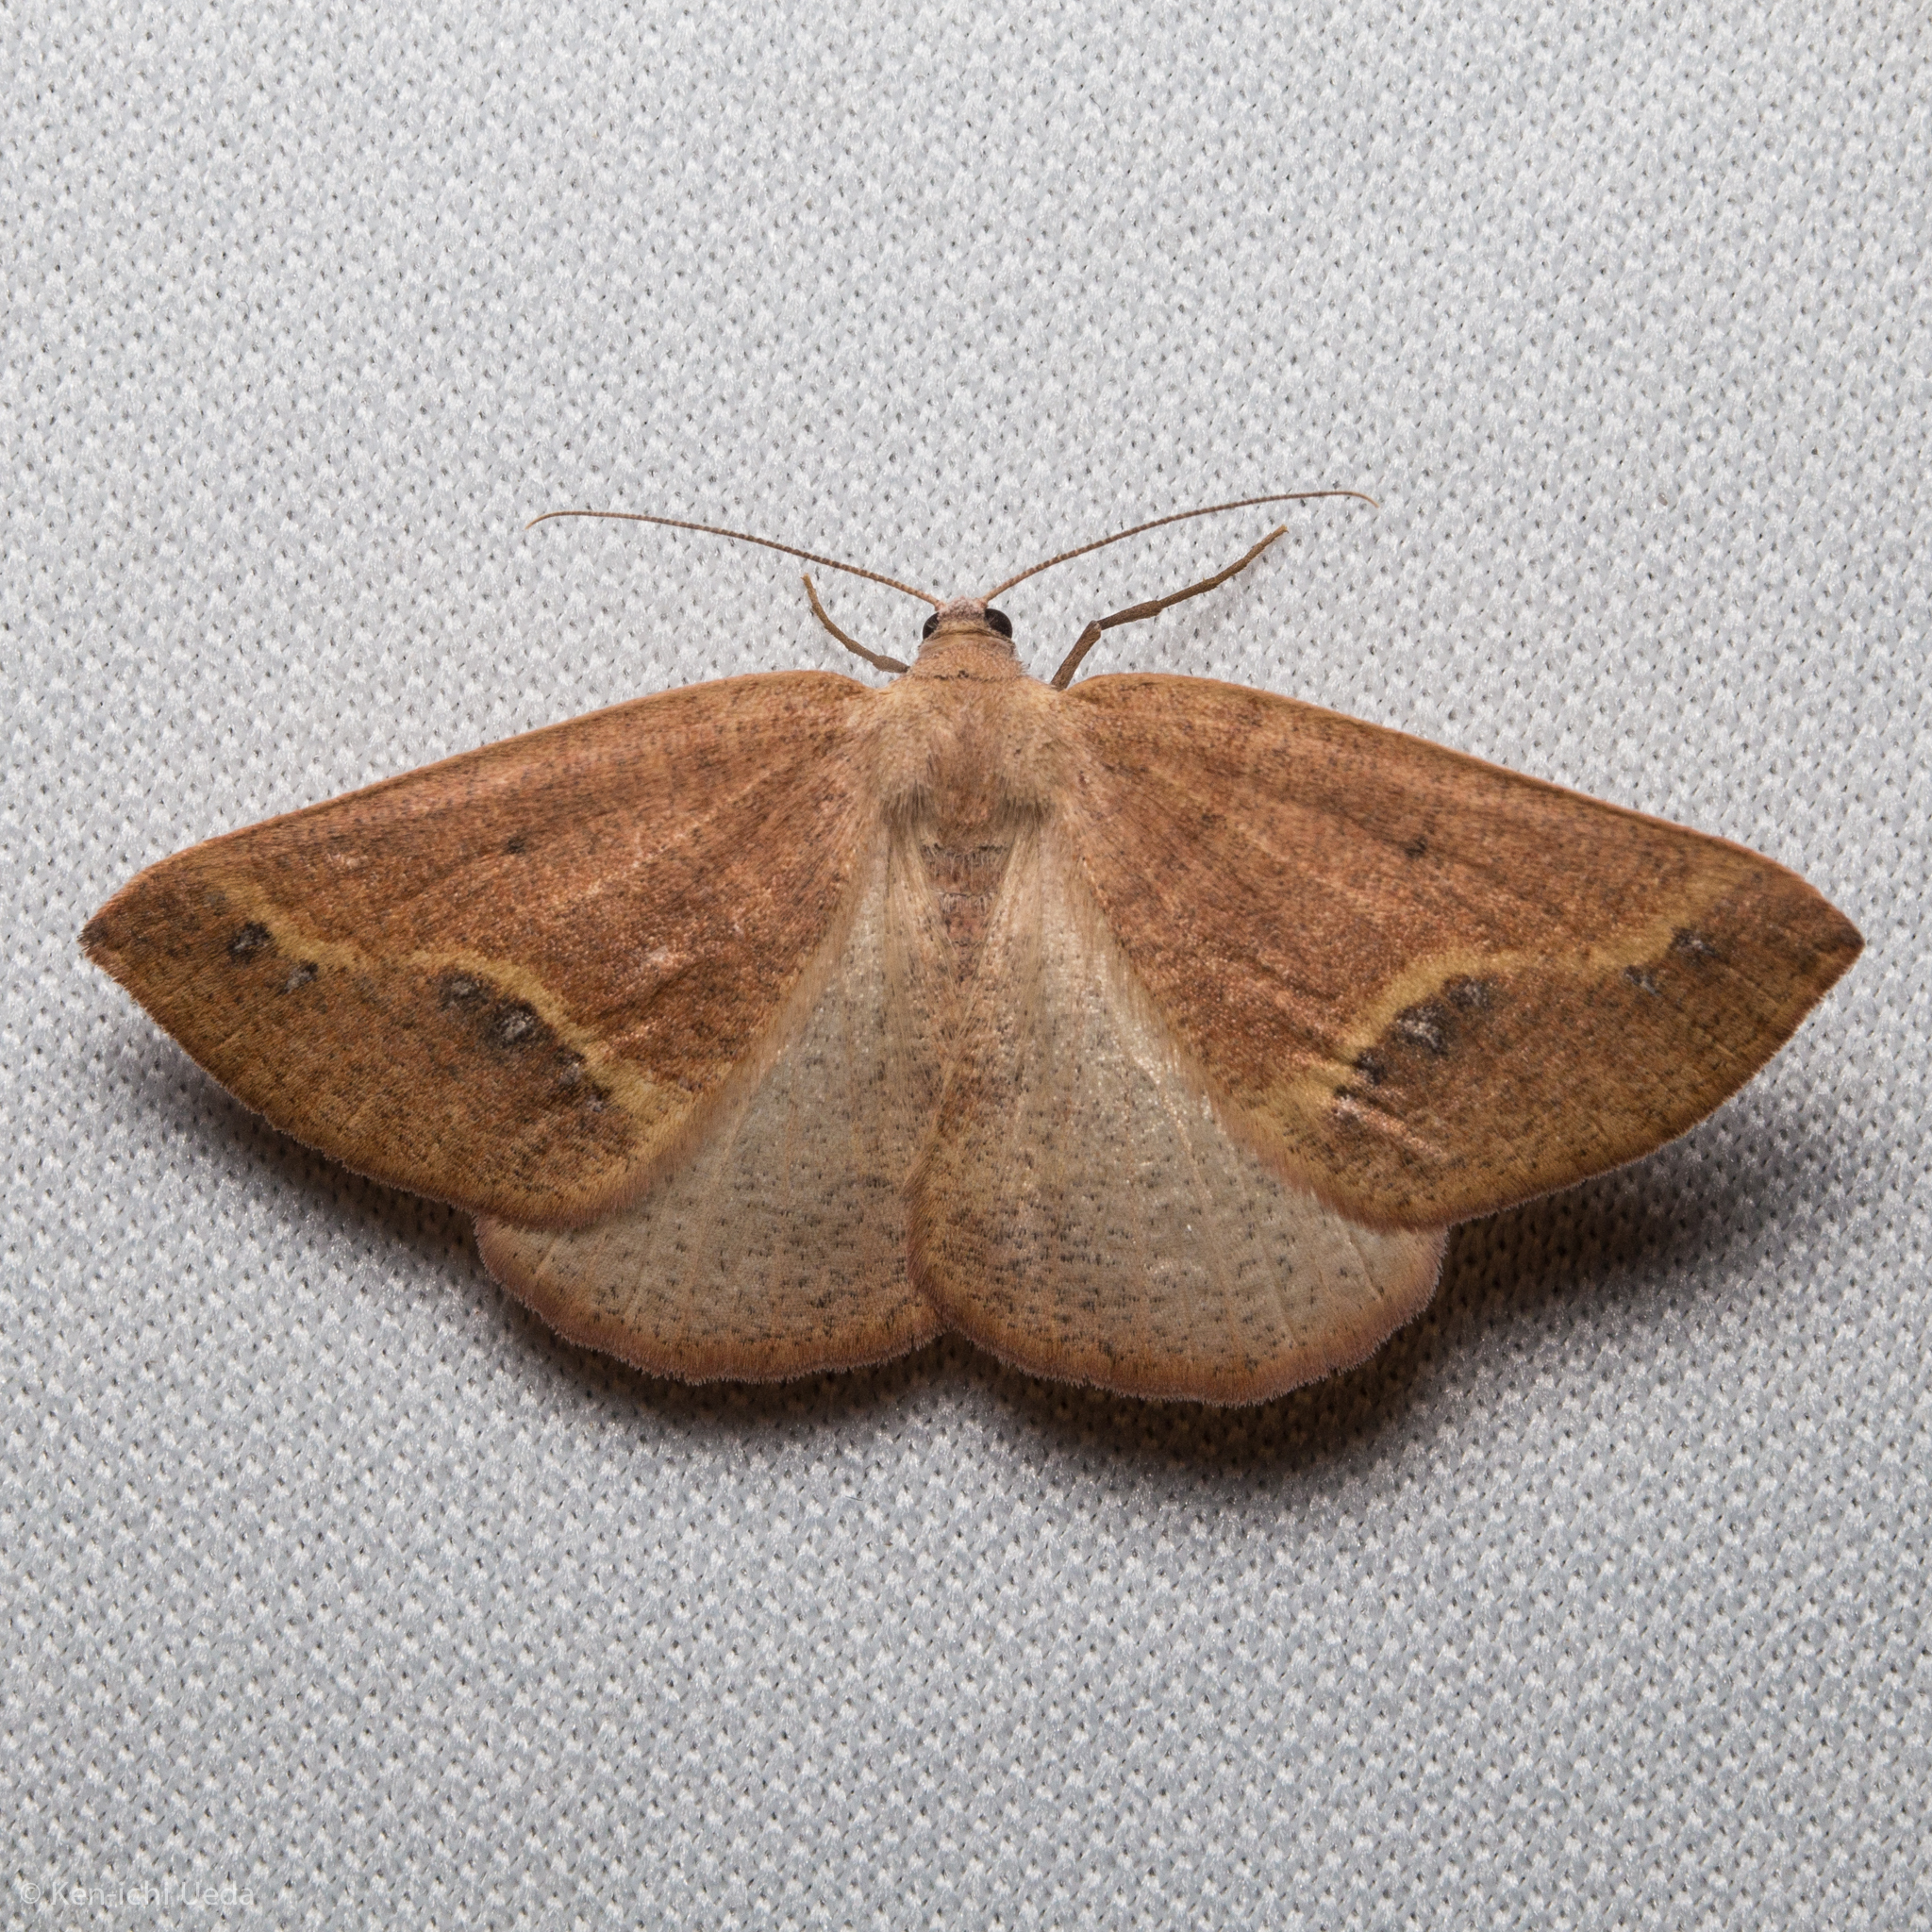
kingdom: Animalia
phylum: Arthropoda
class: Insecta
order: Lepidoptera
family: Geometridae
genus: Drepanulatrix
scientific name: Drepanulatrix unicalcararia
